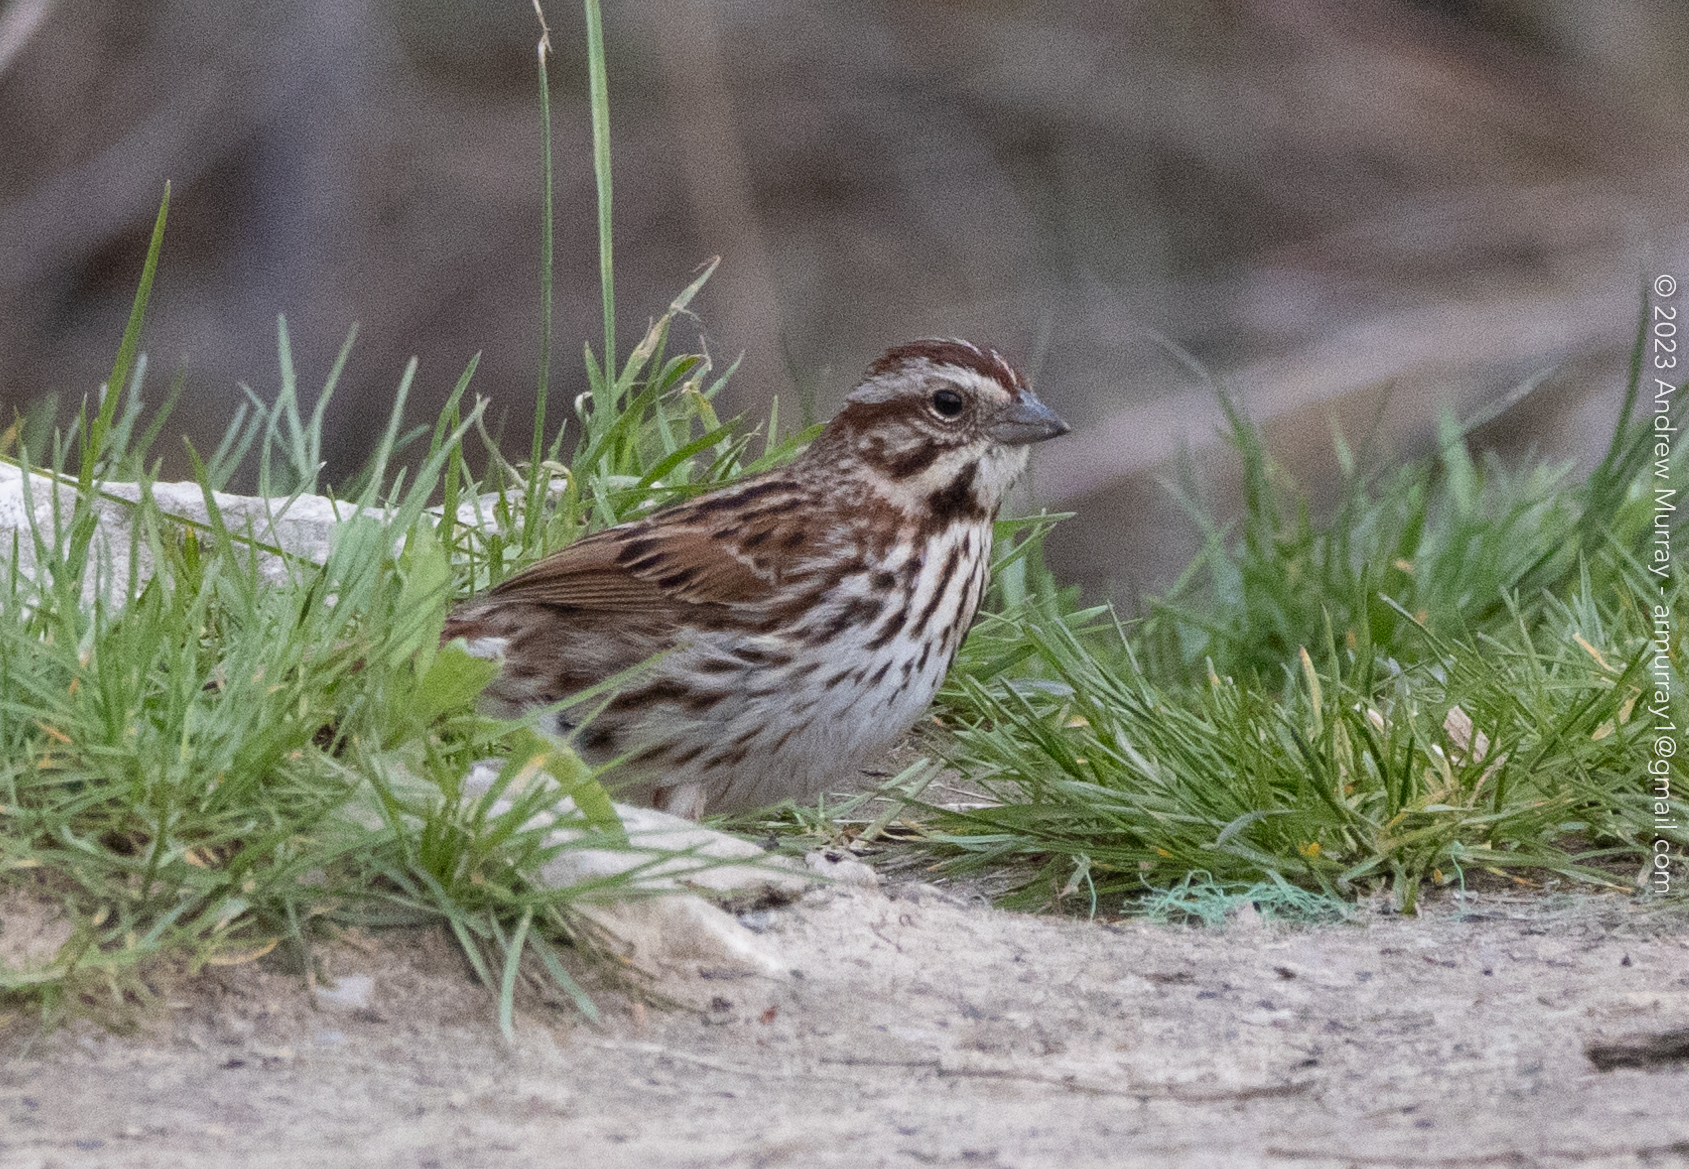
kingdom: Animalia
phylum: Chordata
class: Aves
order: Passeriformes
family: Passerellidae
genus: Melospiza
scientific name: Melospiza melodia
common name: Song sparrow
